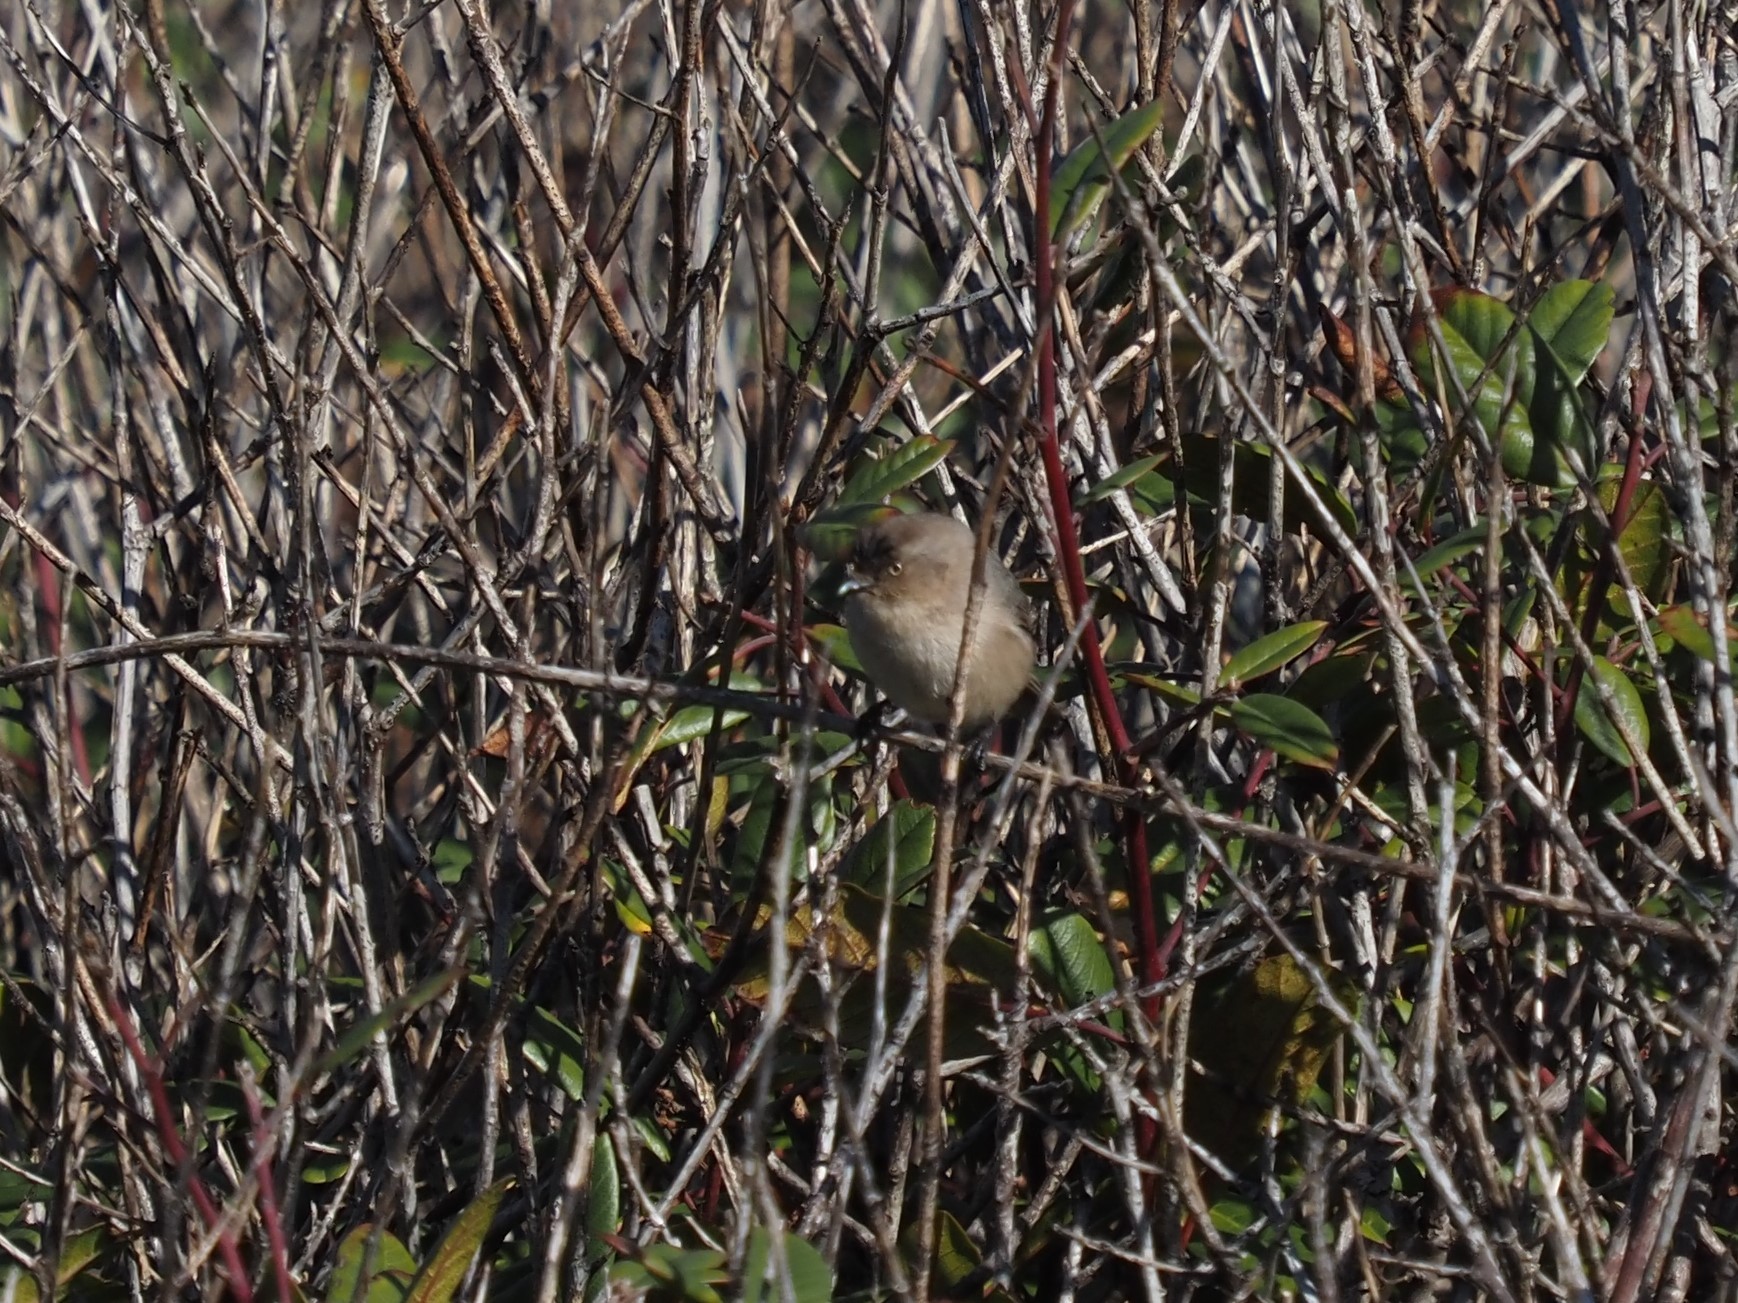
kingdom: Animalia
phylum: Chordata
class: Aves
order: Passeriformes
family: Sylviidae
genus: Chamaea
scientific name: Chamaea fasciata
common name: Wrentit
